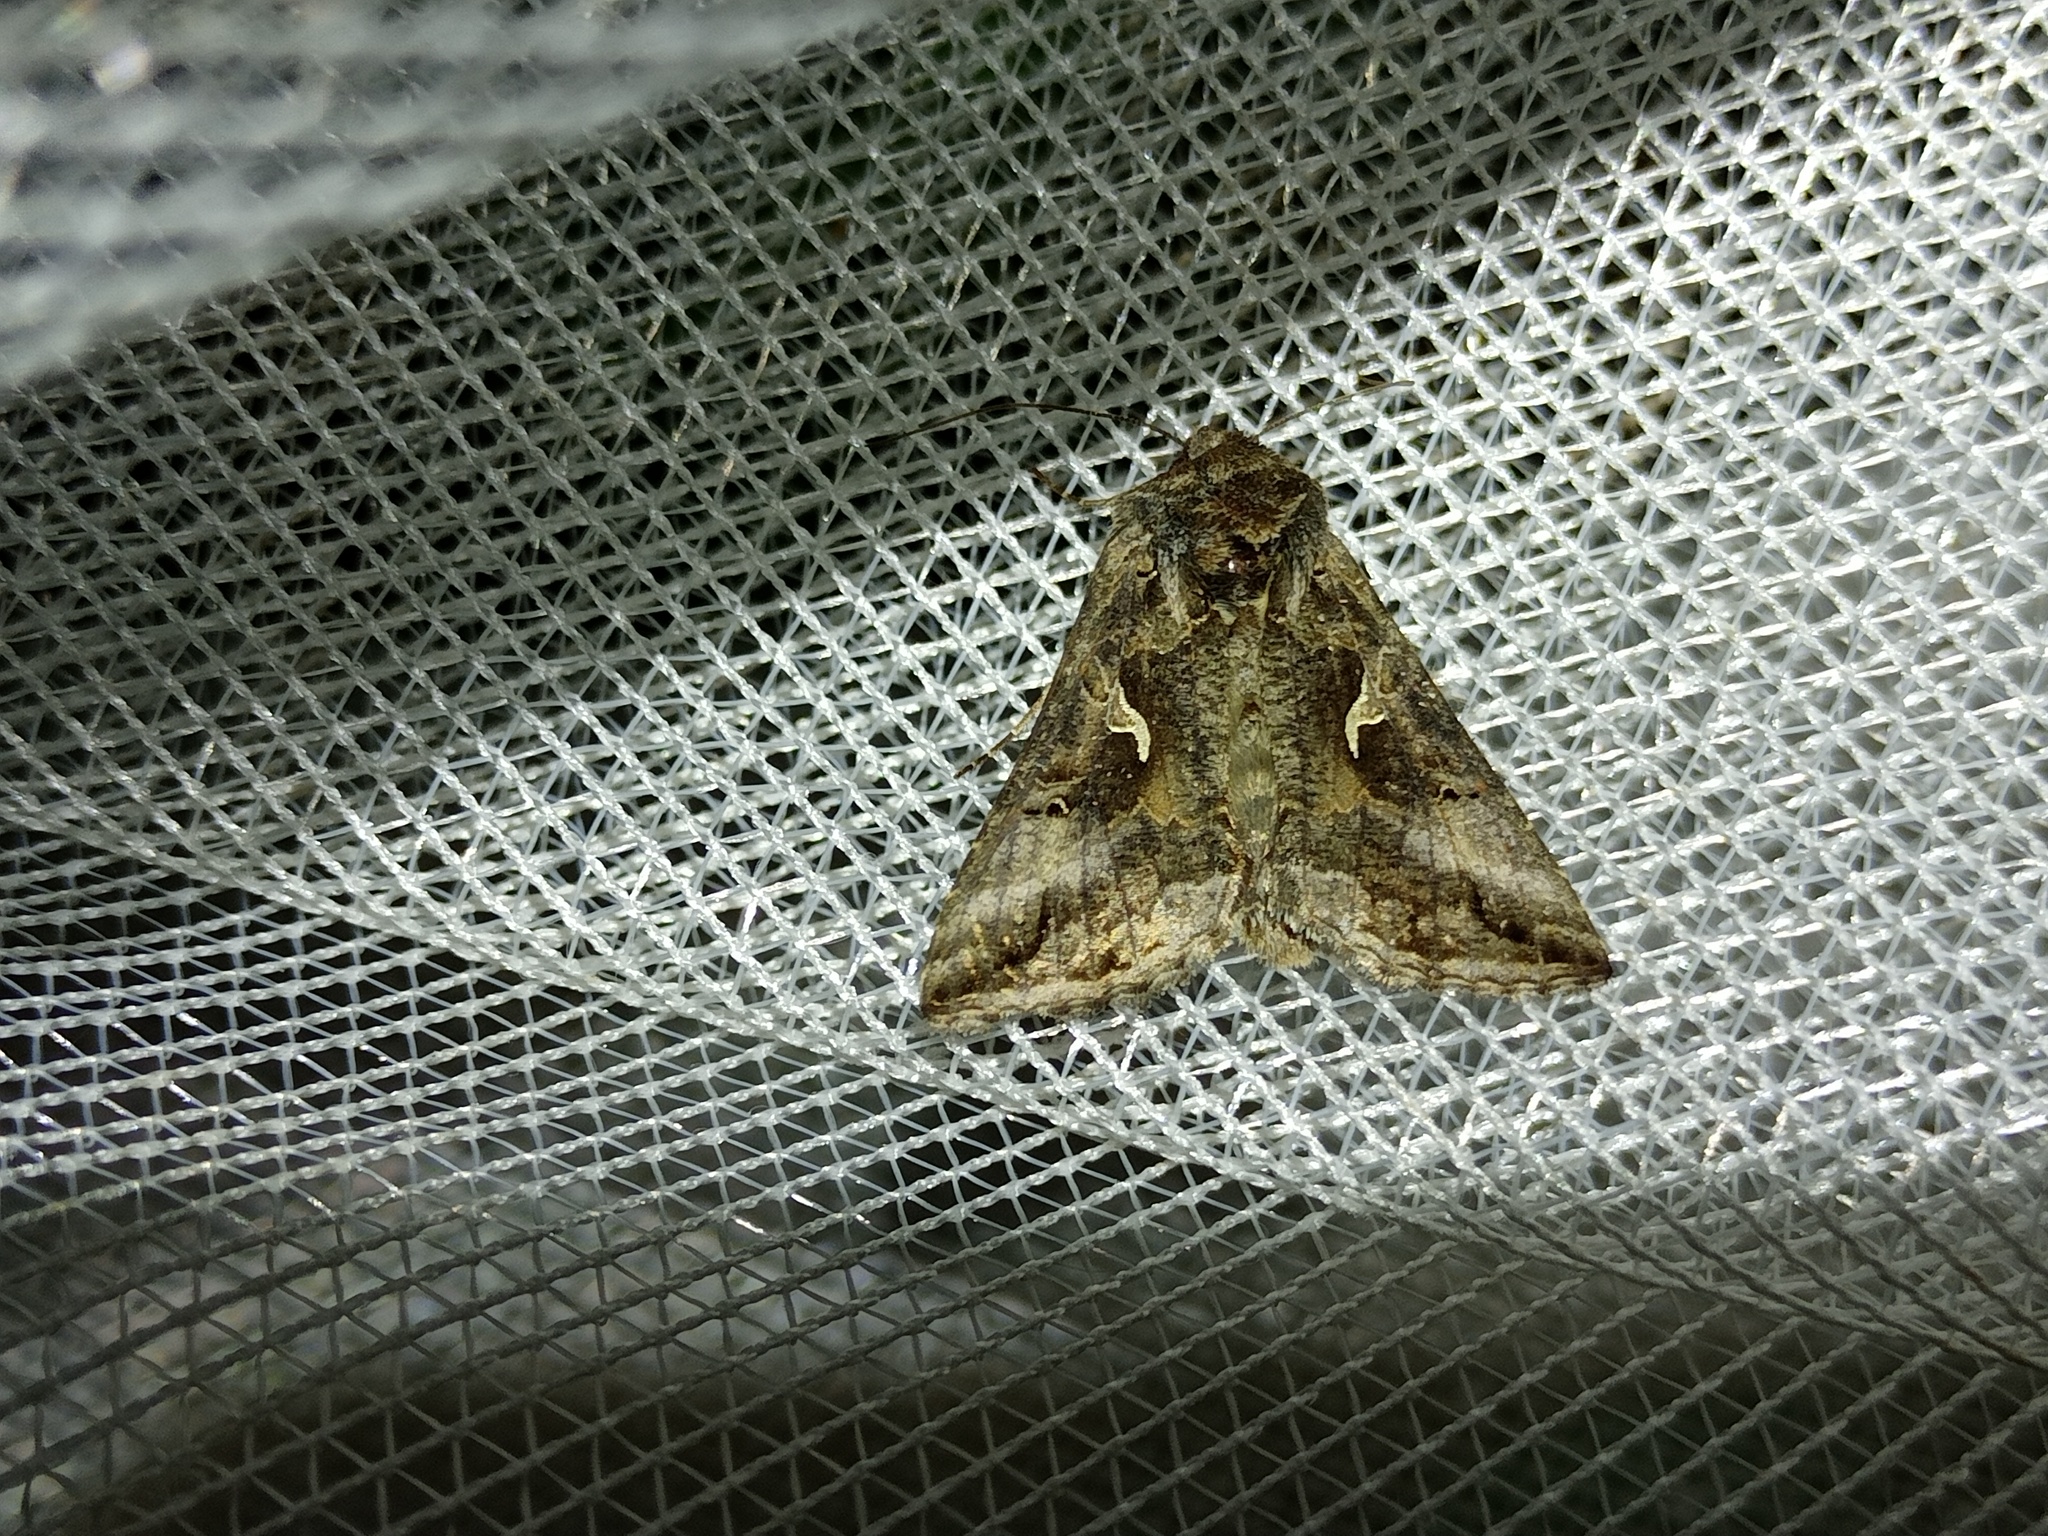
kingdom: Animalia
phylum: Arthropoda
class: Insecta
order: Lepidoptera
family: Noctuidae
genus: Autographa
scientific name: Autographa gamma
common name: Silver y
